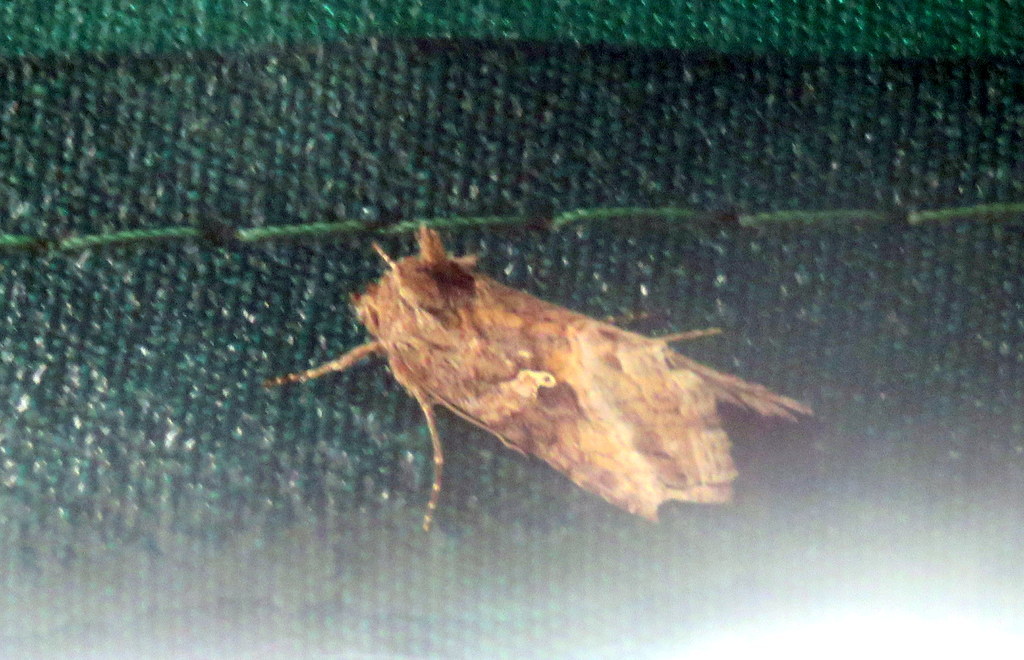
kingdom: Animalia
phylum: Arthropoda
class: Insecta
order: Lepidoptera
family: Noctuidae
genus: Rachiplusia
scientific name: Rachiplusia nu
